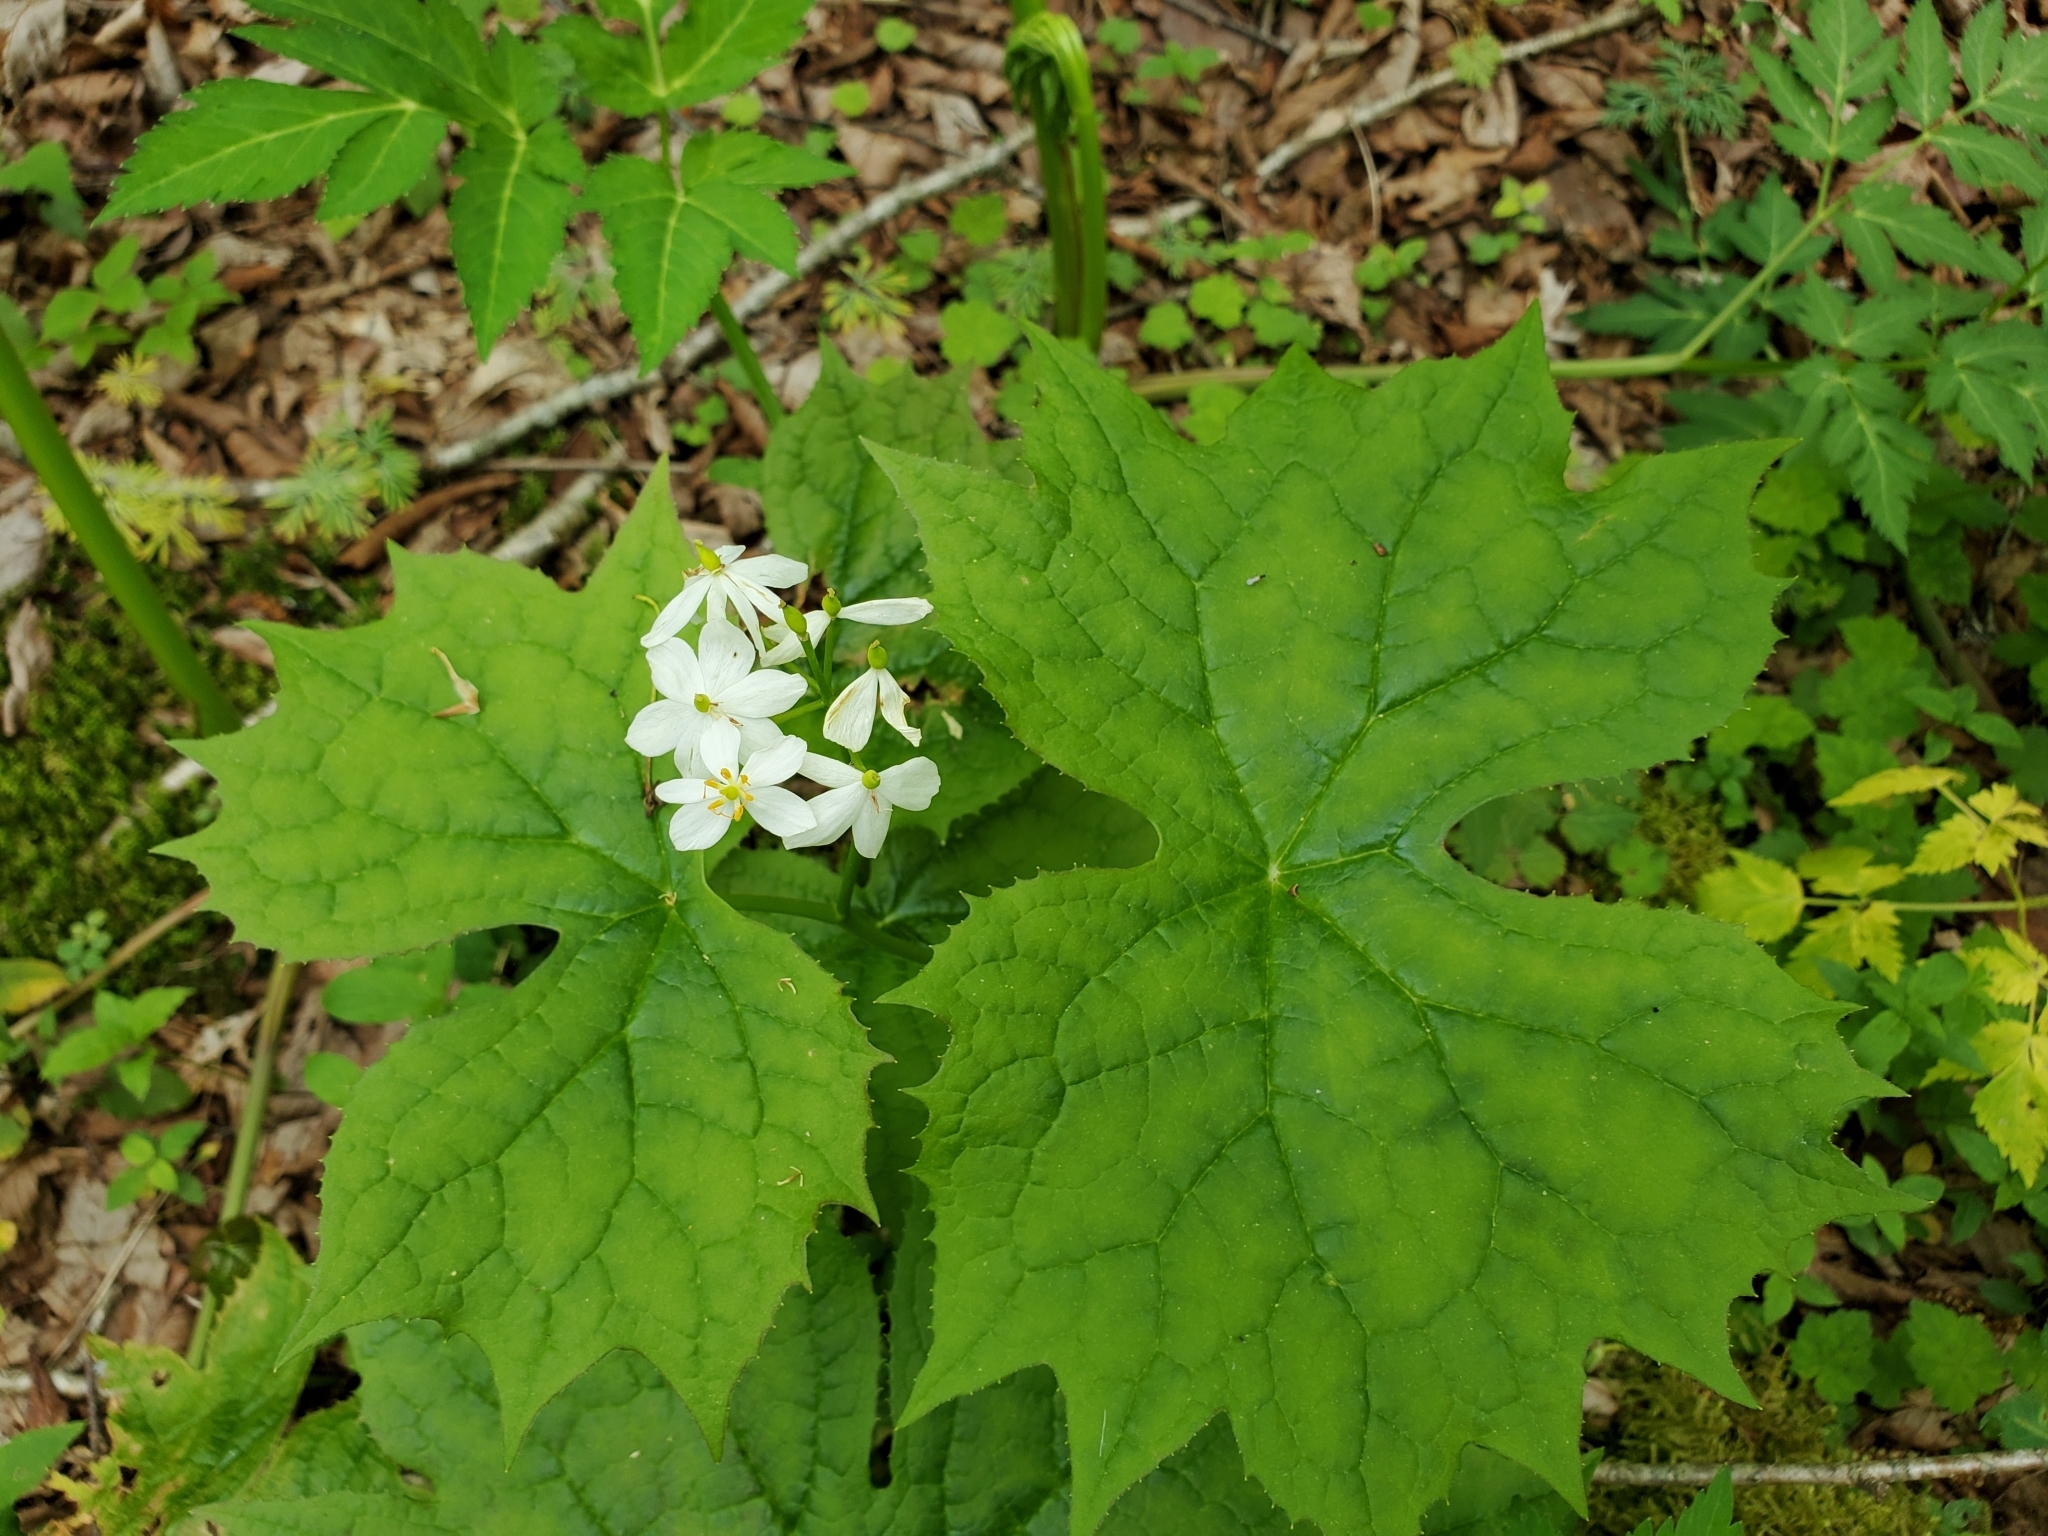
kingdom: Plantae
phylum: Tracheophyta
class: Magnoliopsida
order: Ranunculales
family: Berberidaceae
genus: Diphylleia
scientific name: Diphylleia cymosa
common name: Umbrella-leaf
